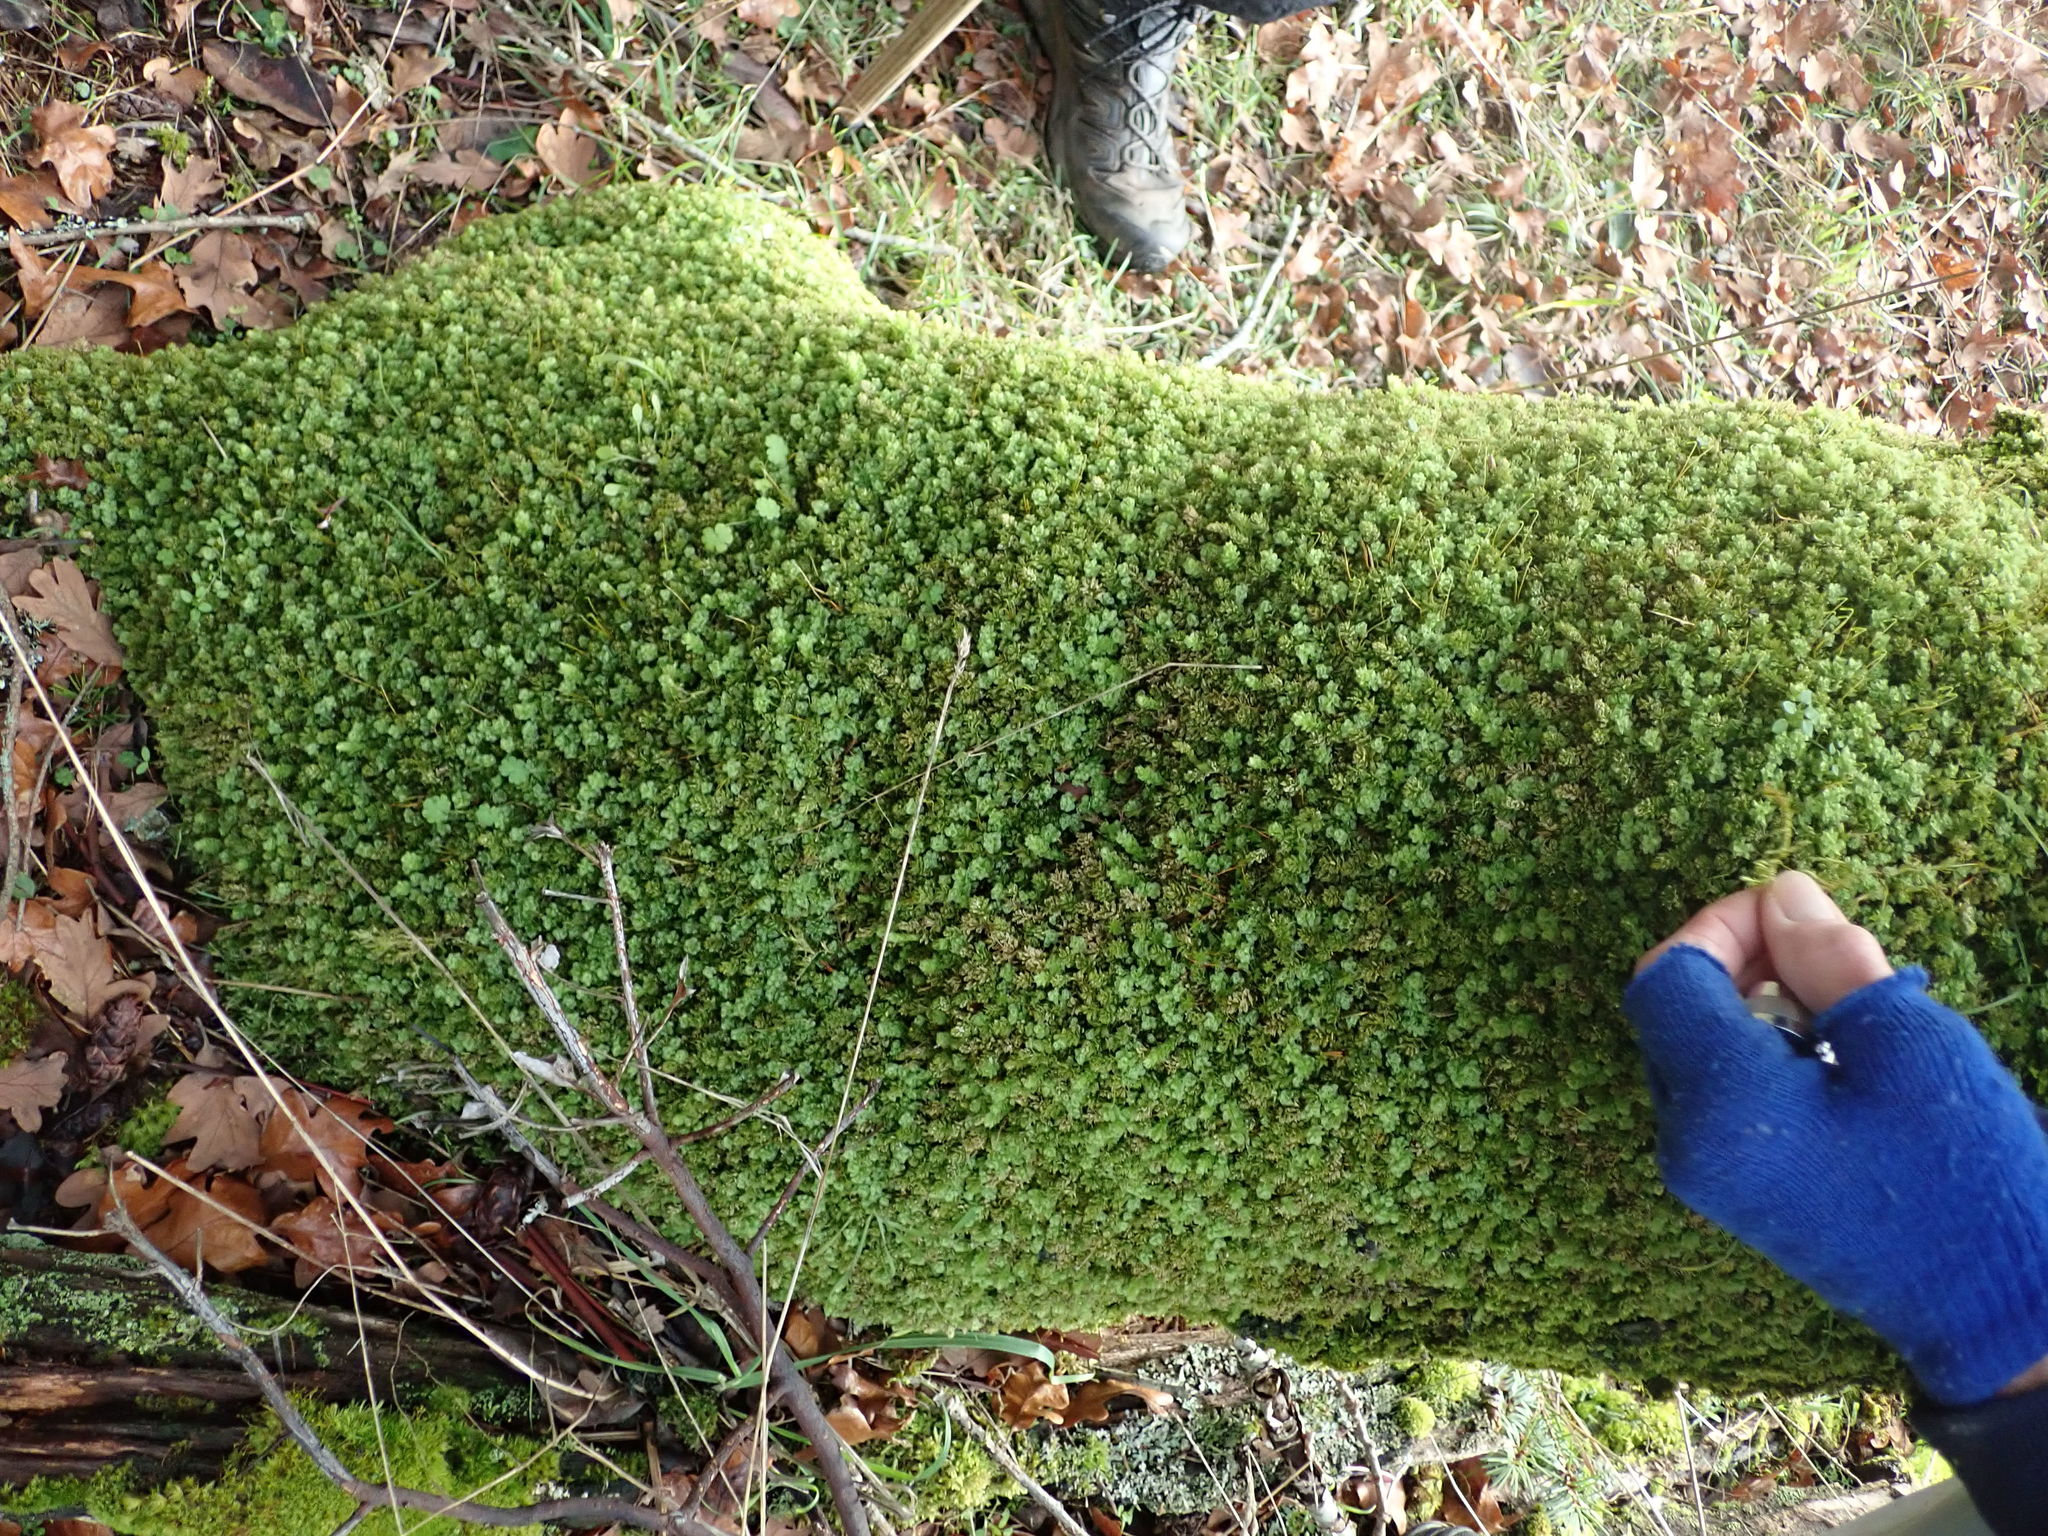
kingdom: Plantae
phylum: Bryophyta
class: Bryopsida
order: Bryales
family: Mniaceae
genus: Plagiomnium
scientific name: Plagiomnium venustum
